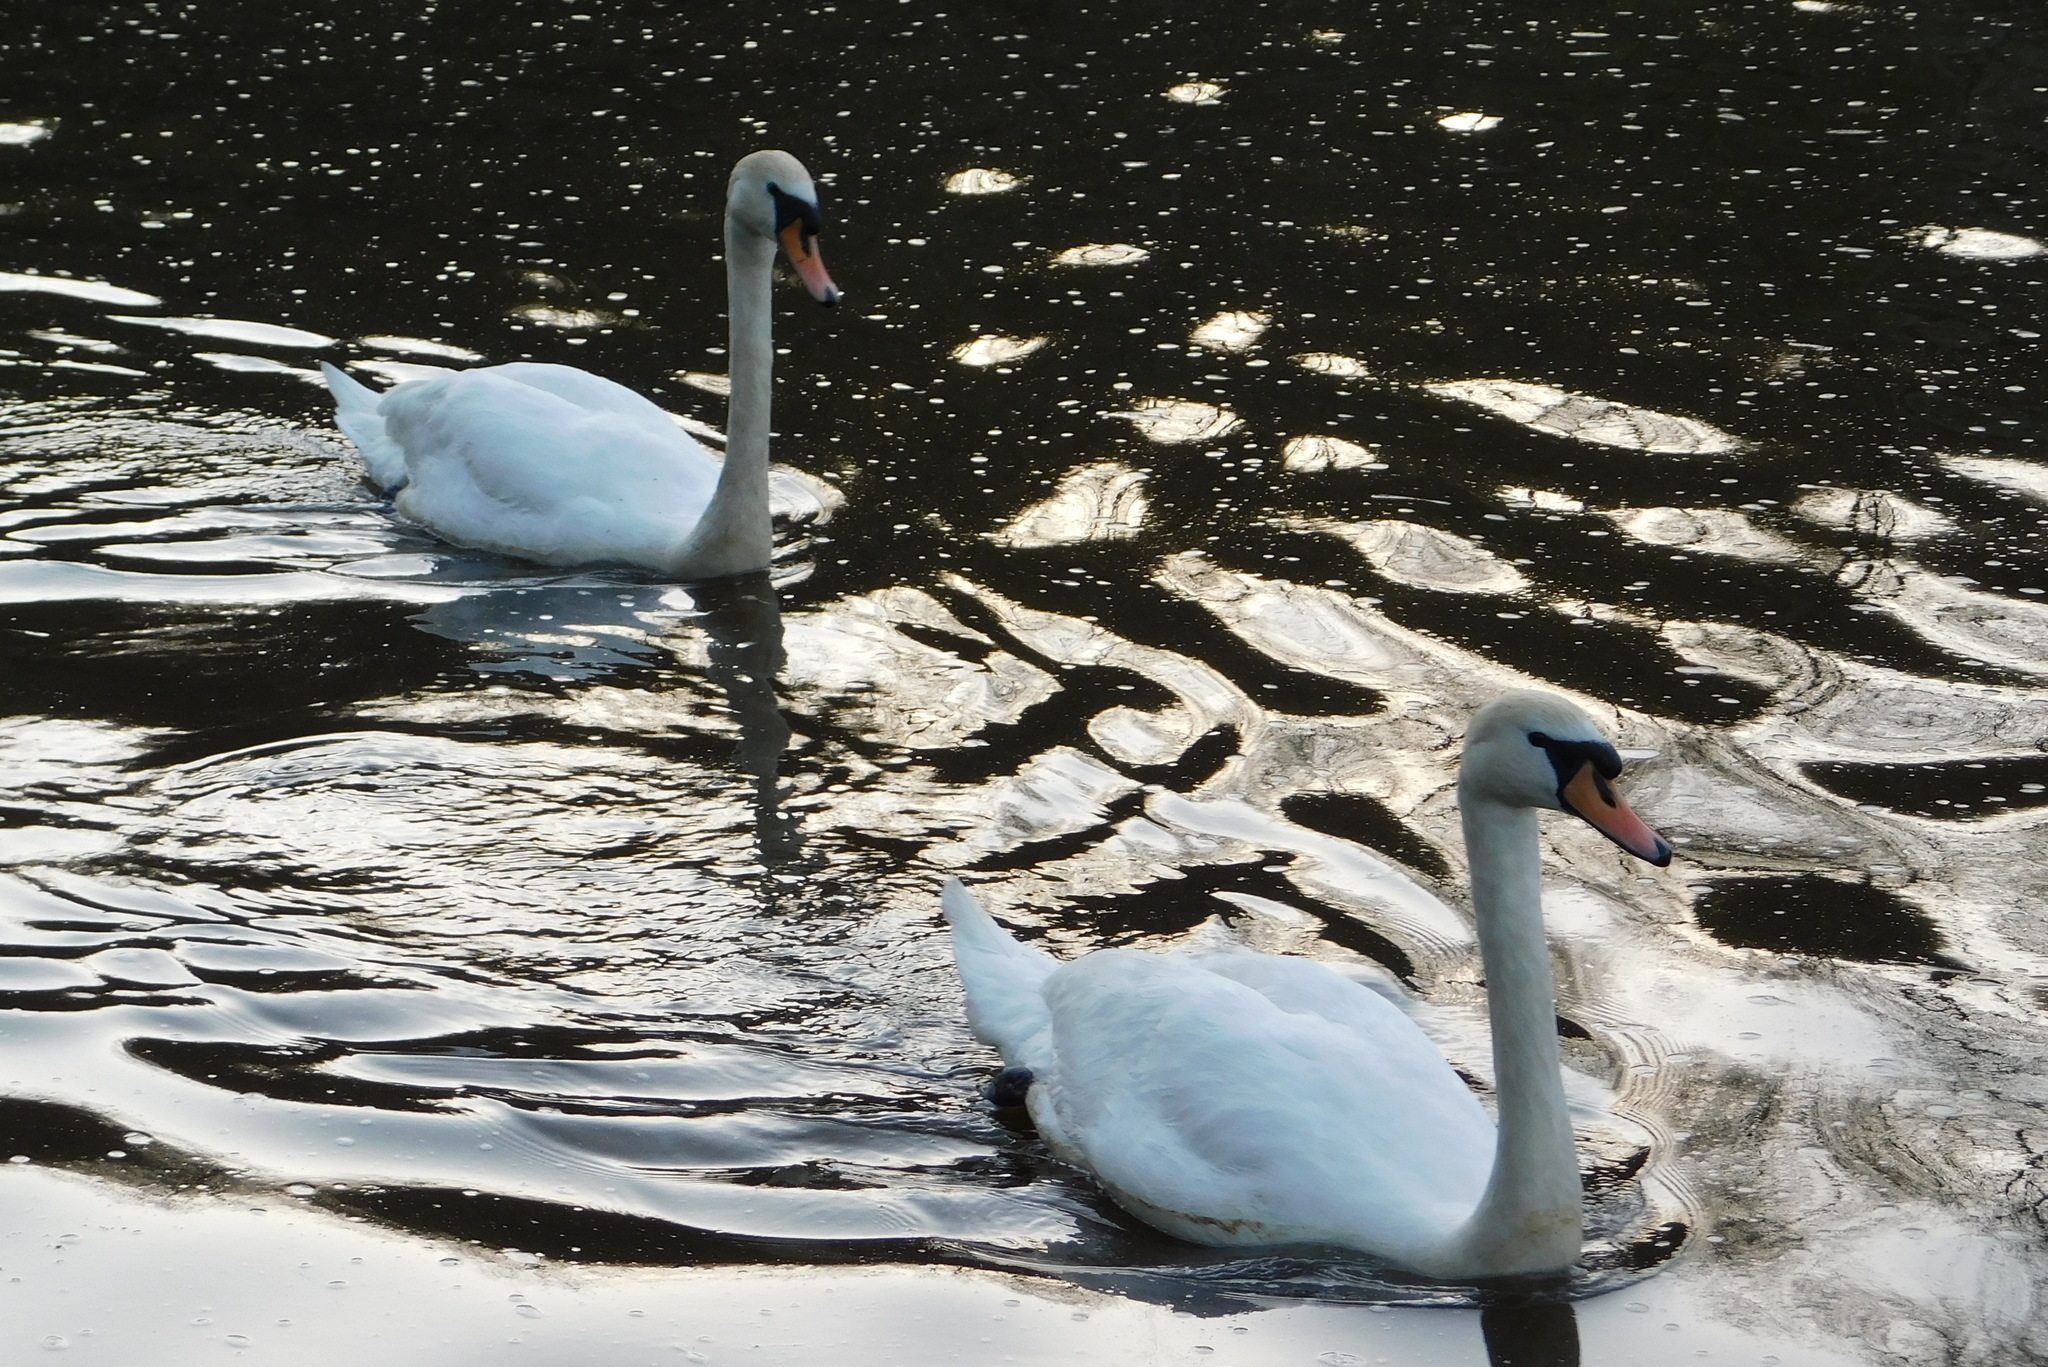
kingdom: Animalia
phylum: Chordata
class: Aves
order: Anseriformes
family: Anatidae
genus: Cygnus
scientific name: Cygnus olor
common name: Mute swan
